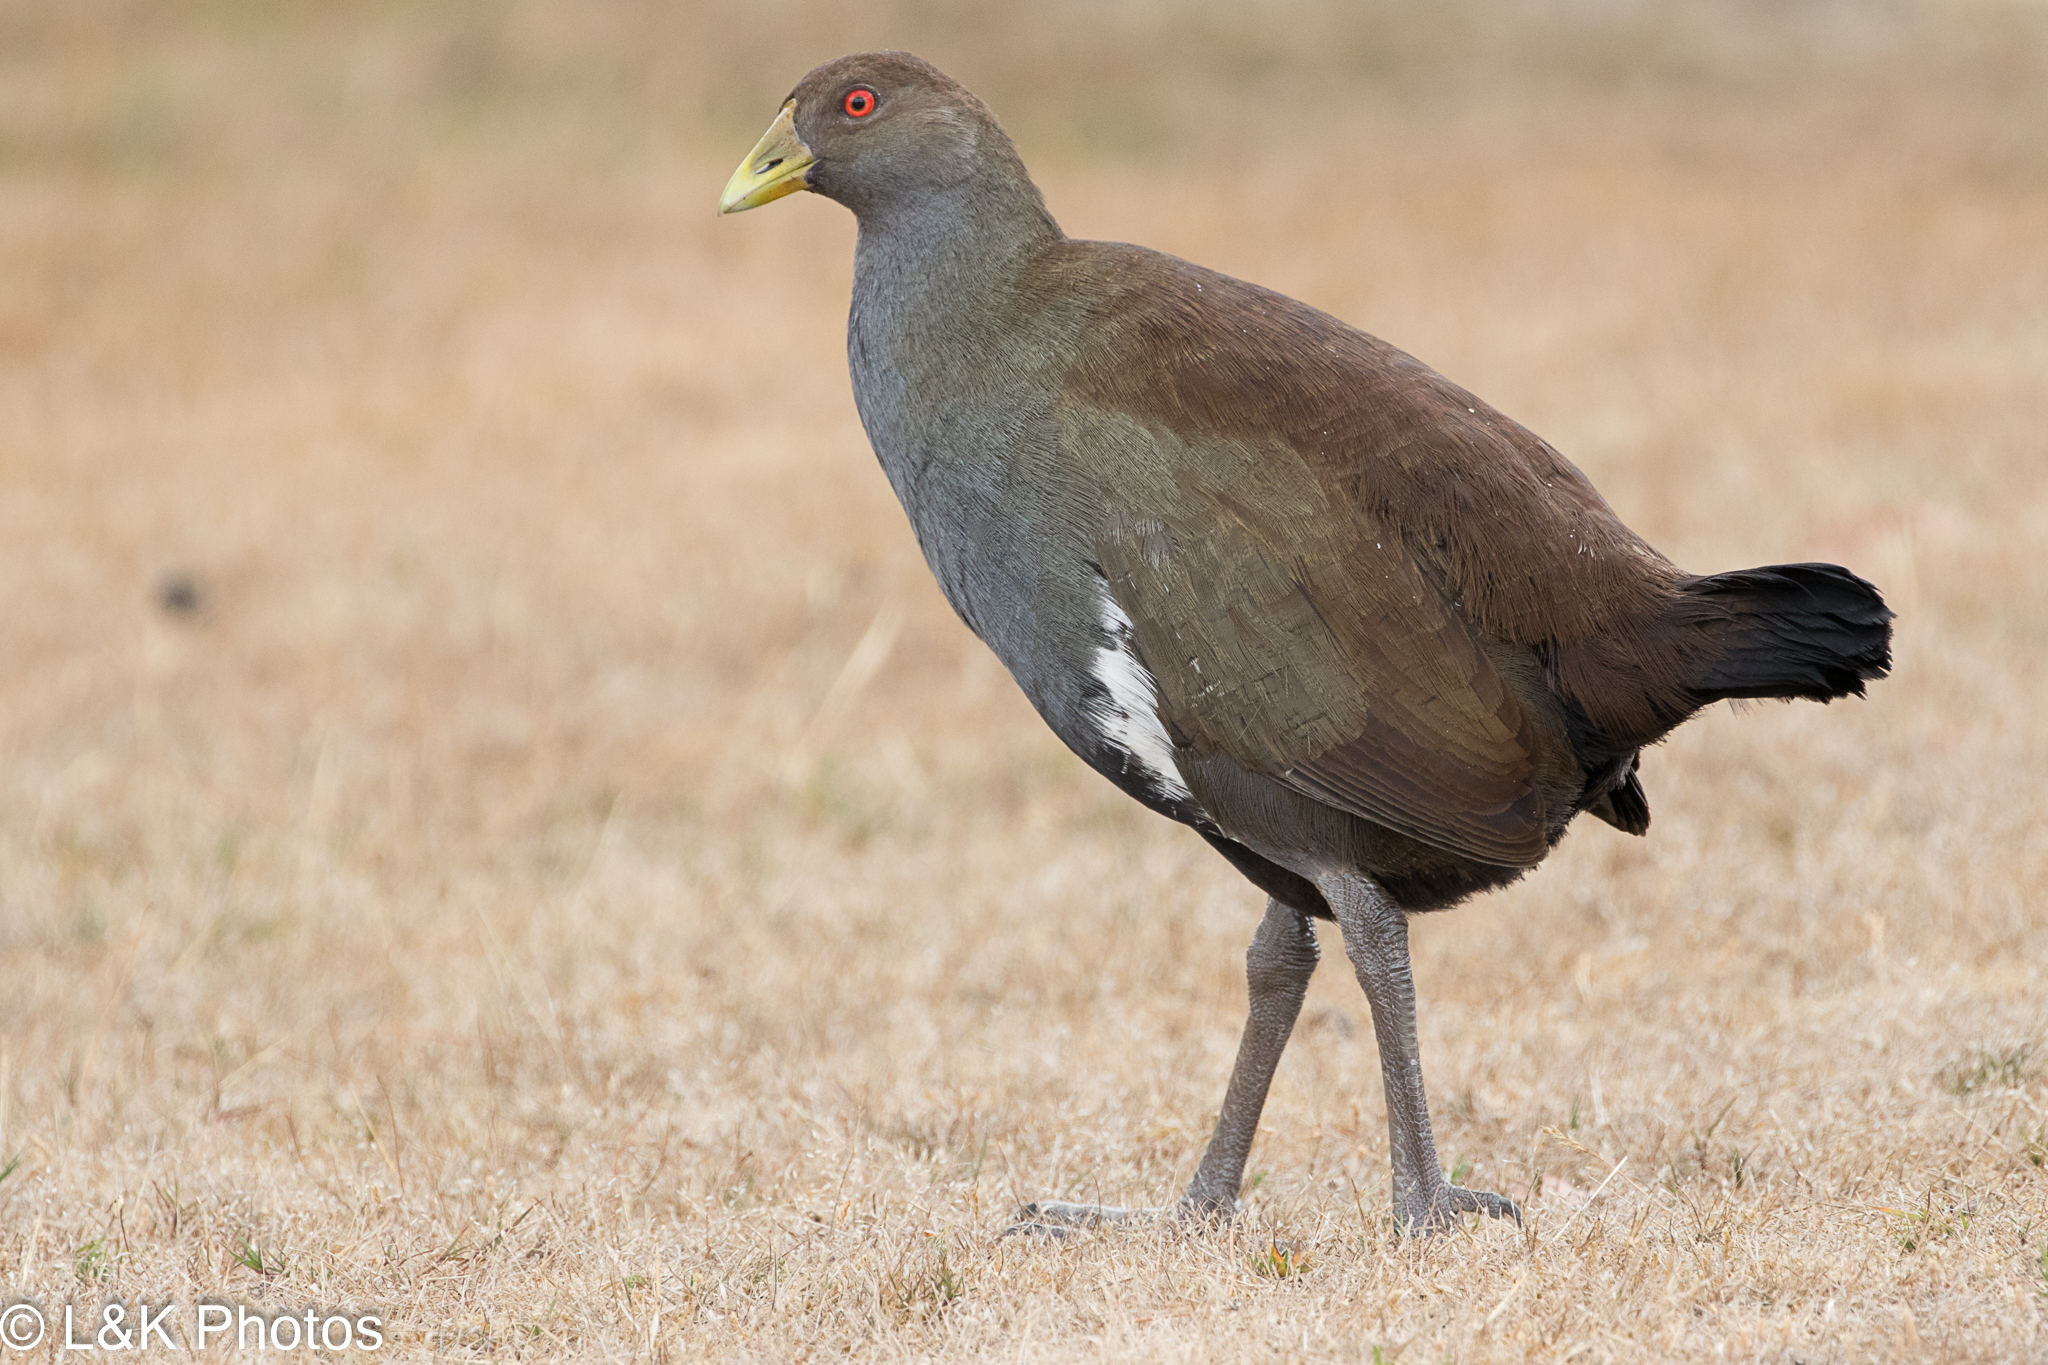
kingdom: Animalia
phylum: Chordata
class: Aves
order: Gruiformes
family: Rallidae
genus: Gallinula
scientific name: Gallinula mortierii
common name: Tasmanian nativehen
